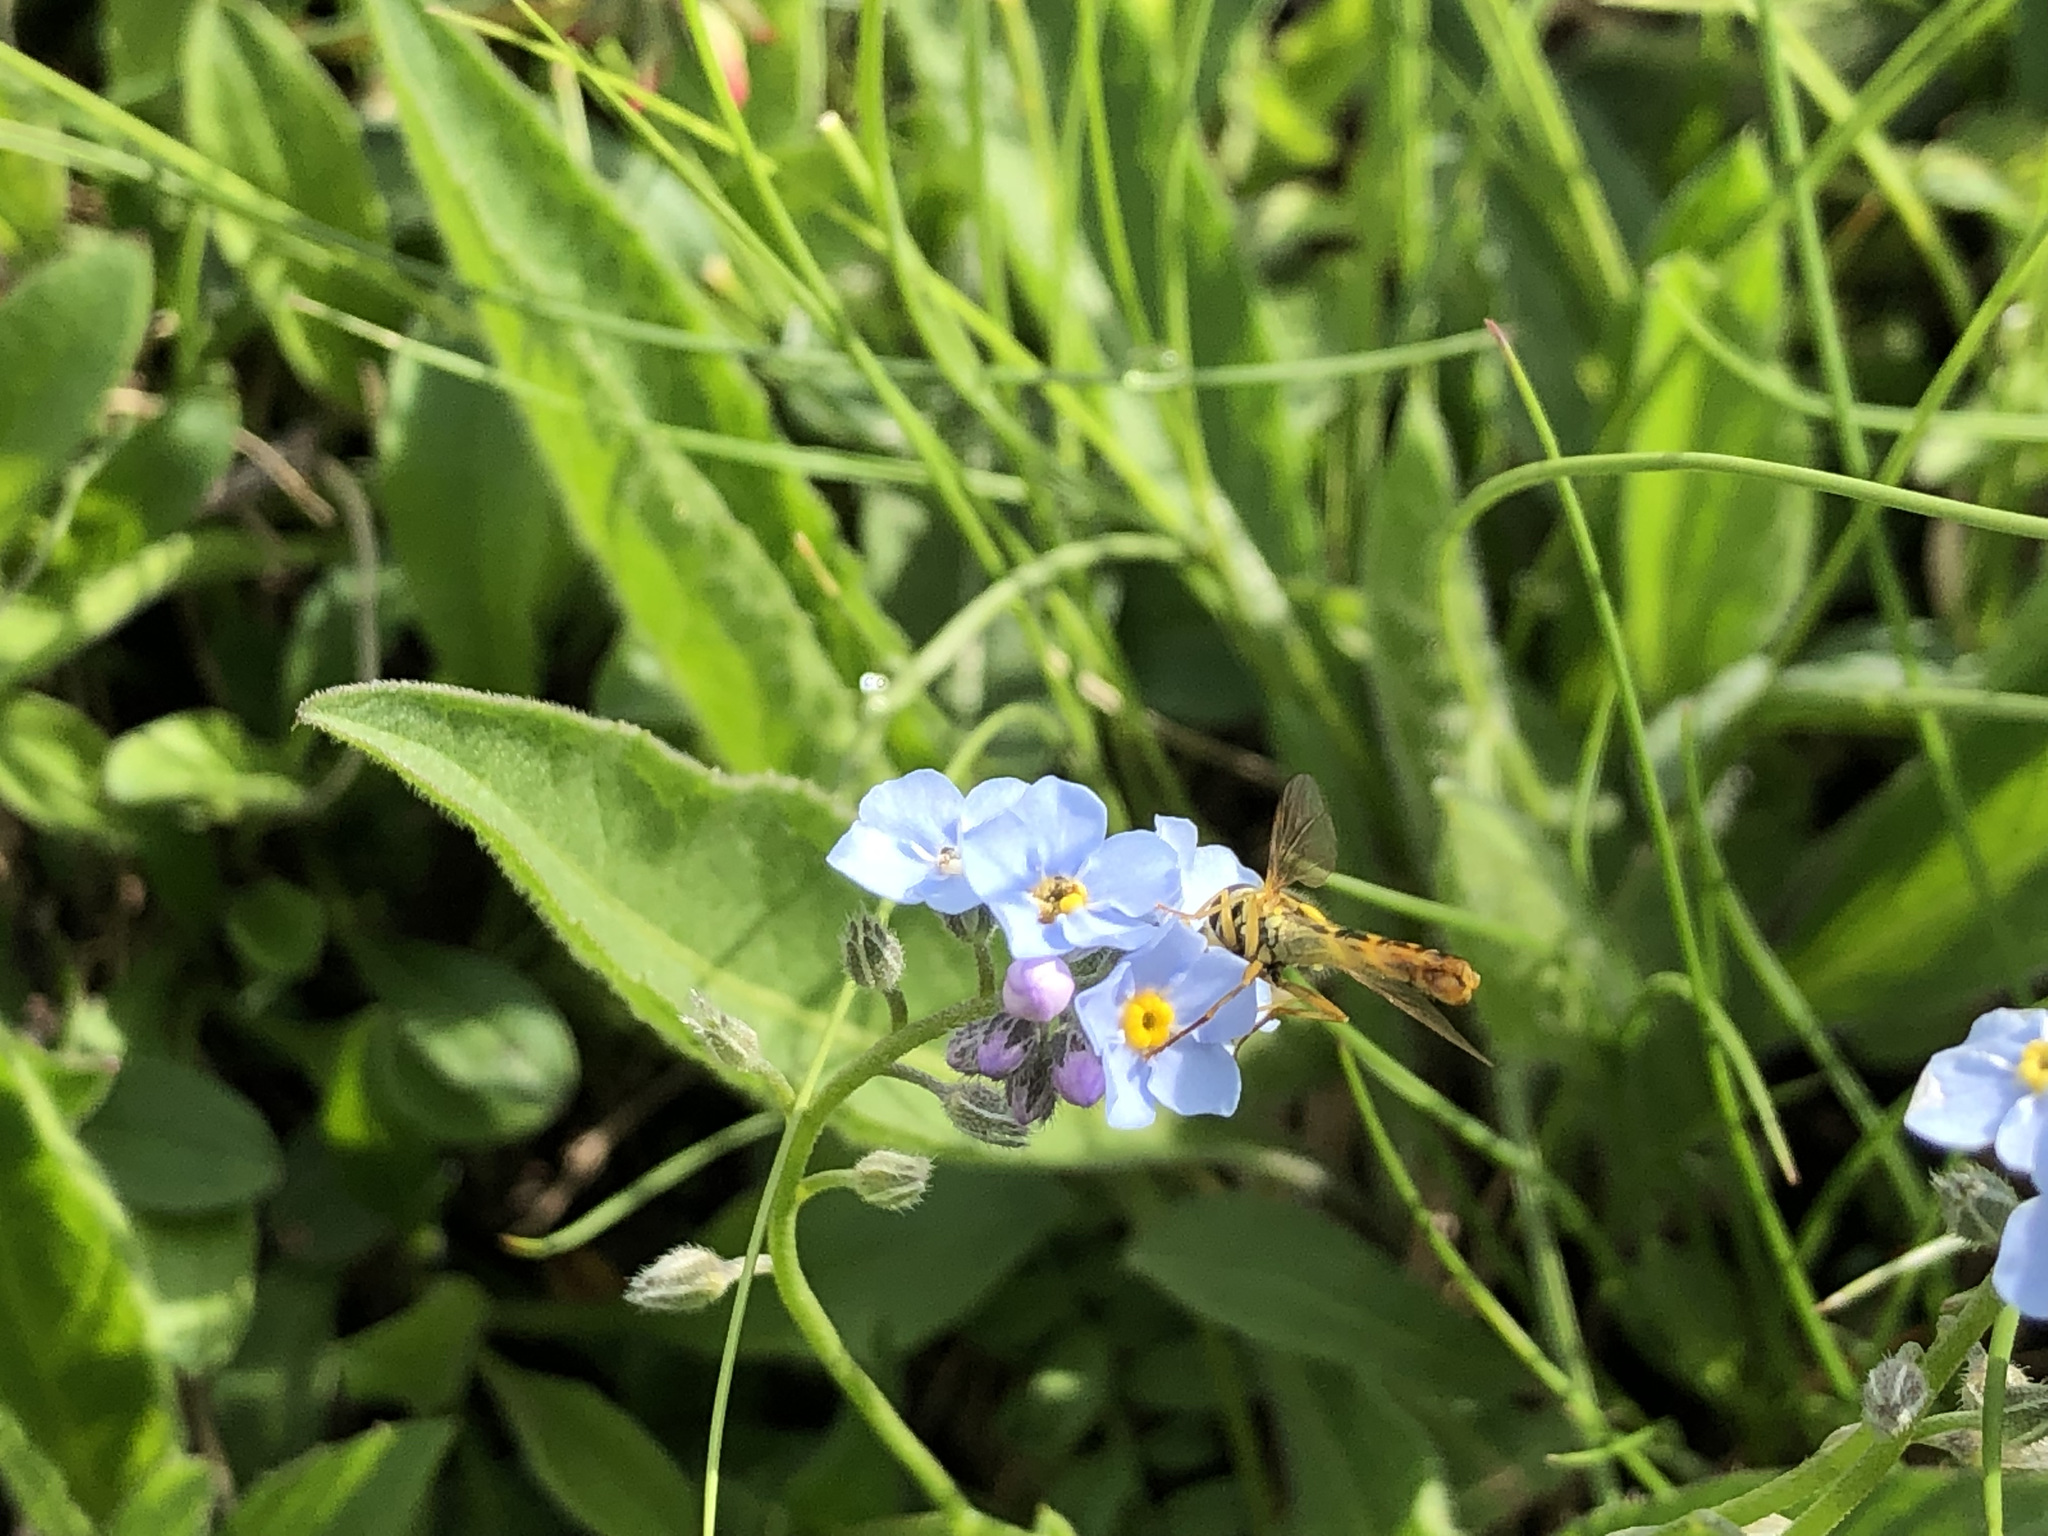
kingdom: Animalia
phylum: Arthropoda
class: Insecta
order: Diptera
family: Syrphidae
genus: Sphaerophoria
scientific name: Sphaerophoria scripta
